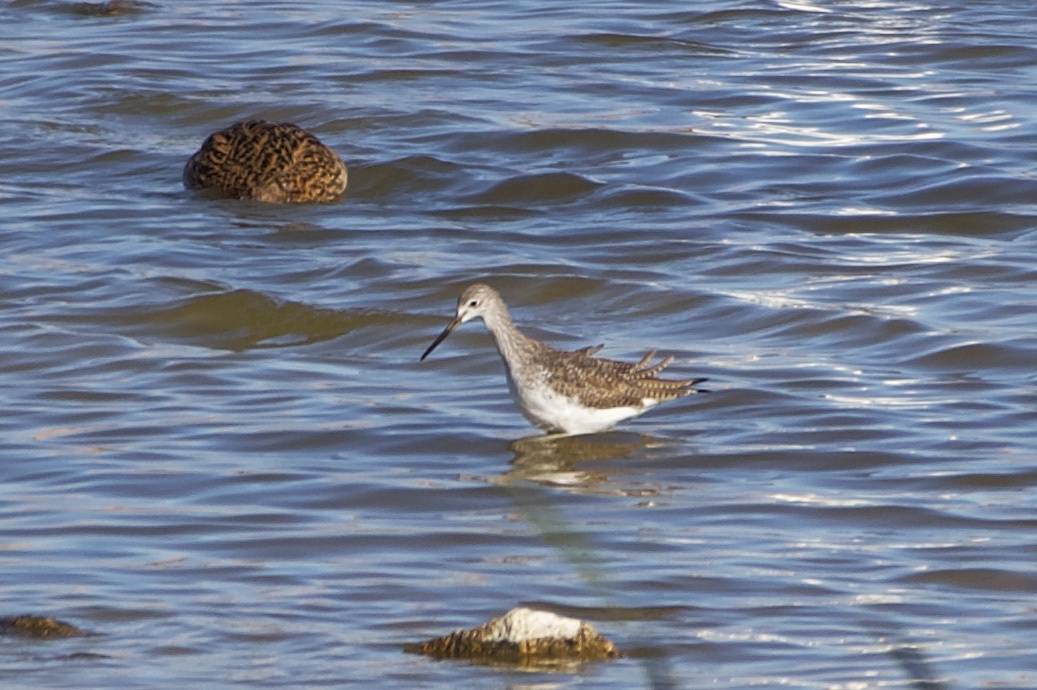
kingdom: Animalia
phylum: Chordata
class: Aves
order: Charadriiformes
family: Scolopacidae
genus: Tringa
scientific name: Tringa melanoleuca
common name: Greater yellowlegs
